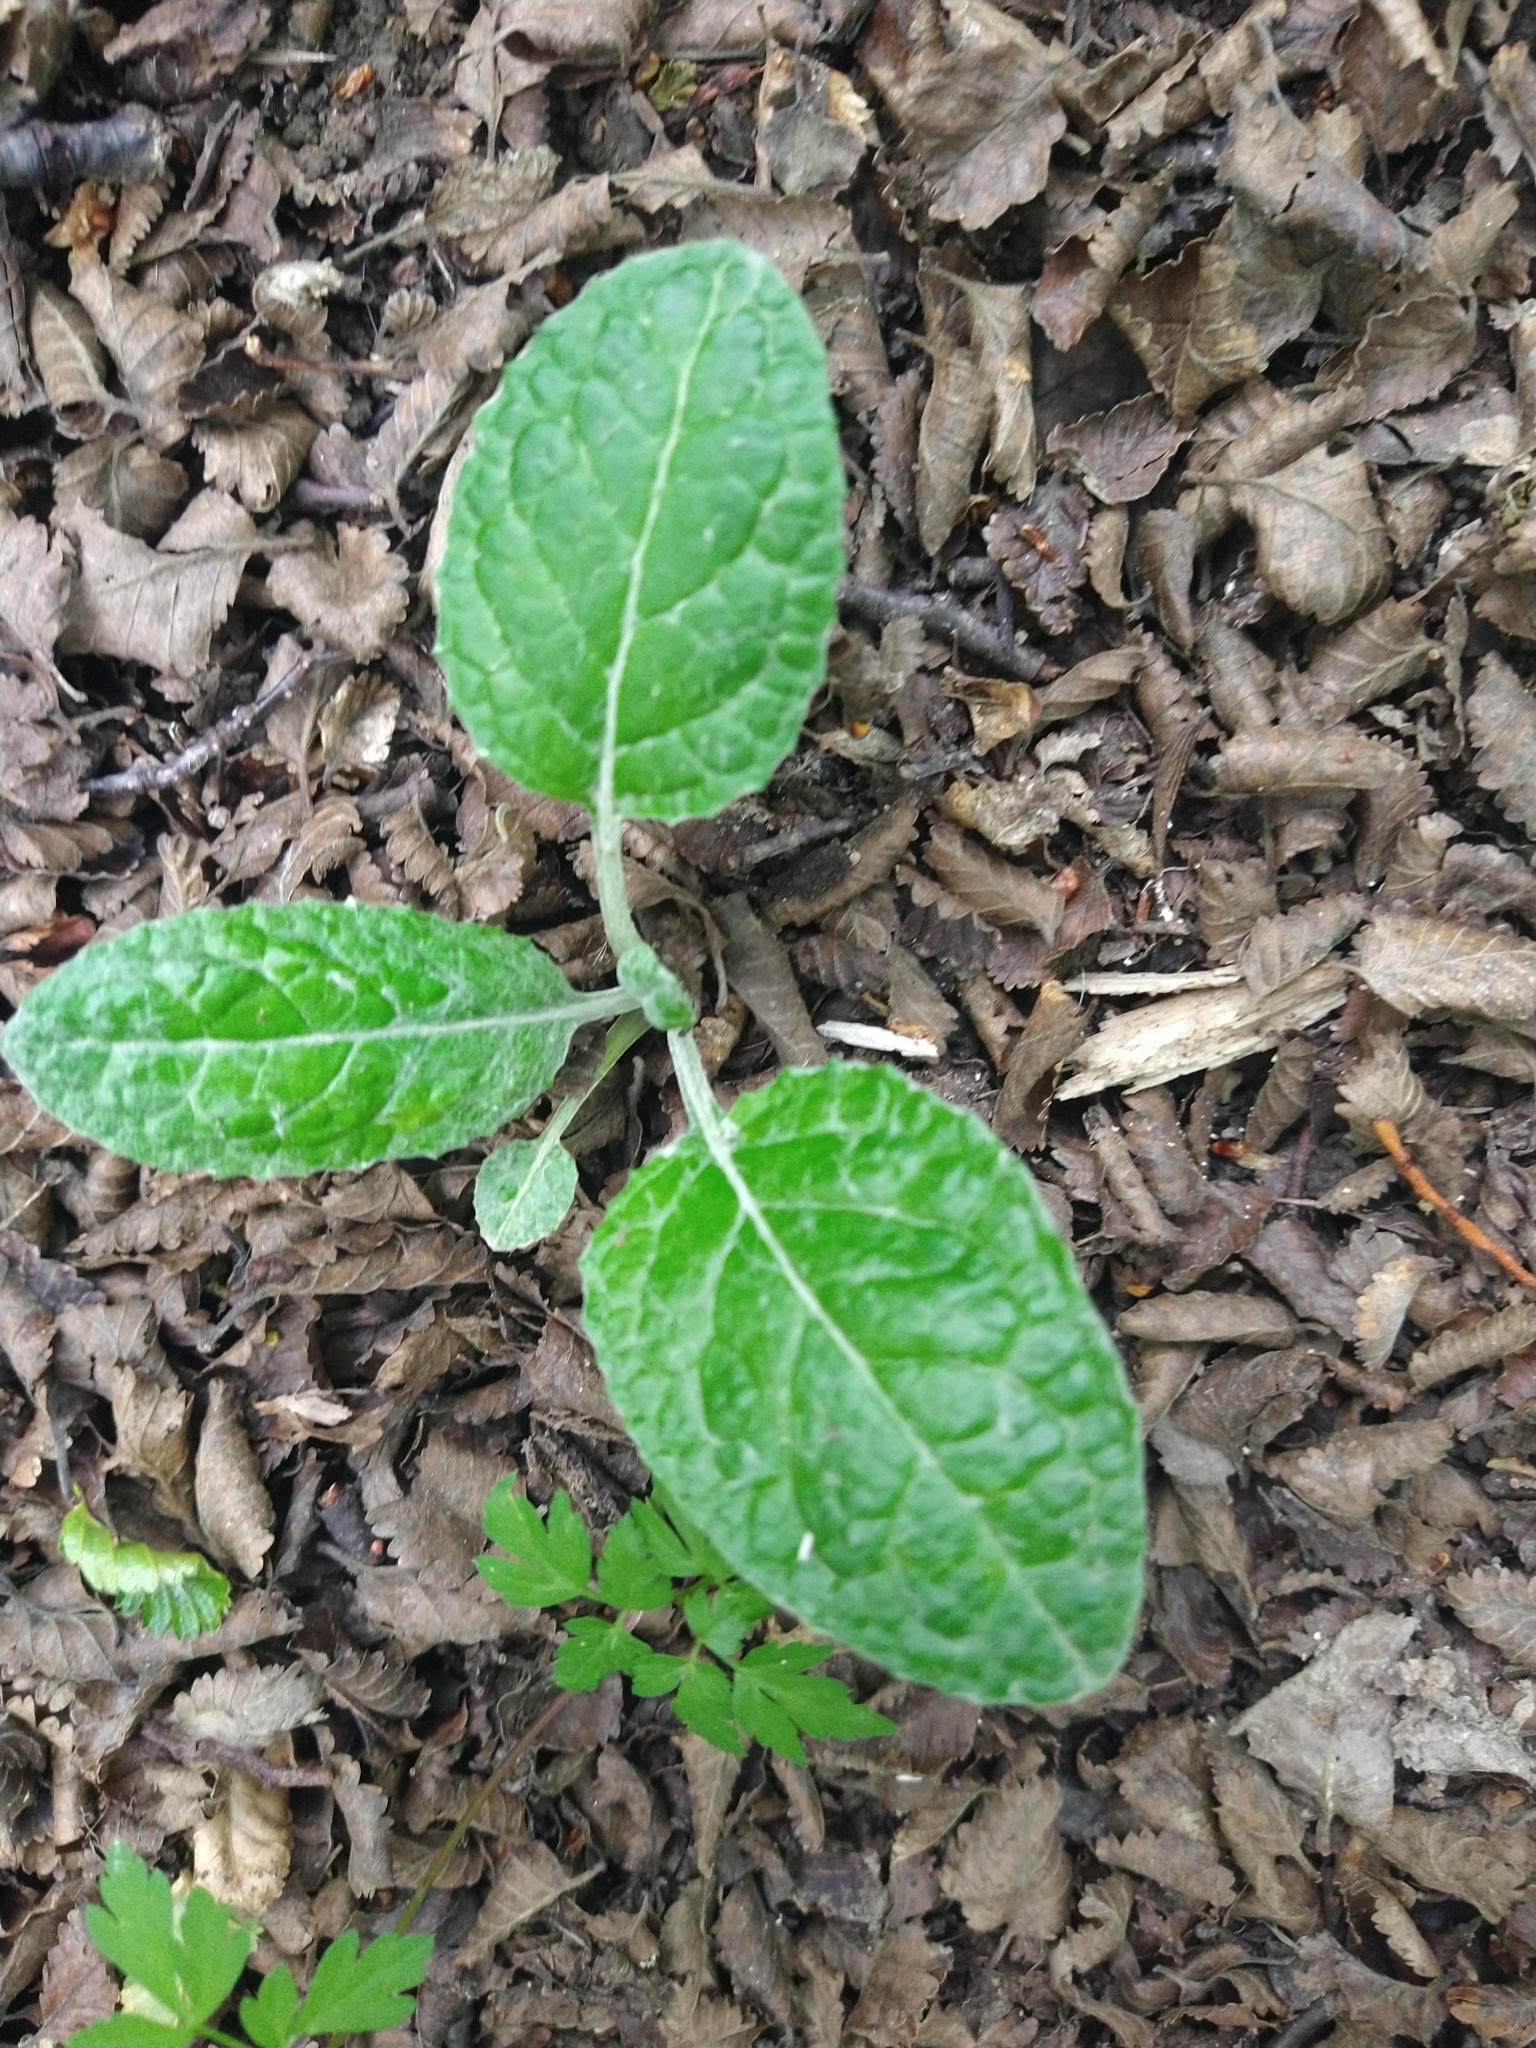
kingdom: Plantae
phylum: Tracheophyta
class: Magnoliopsida
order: Asterales
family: Asteraceae
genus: Adenocaulon
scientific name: Adenocaulon chilense
